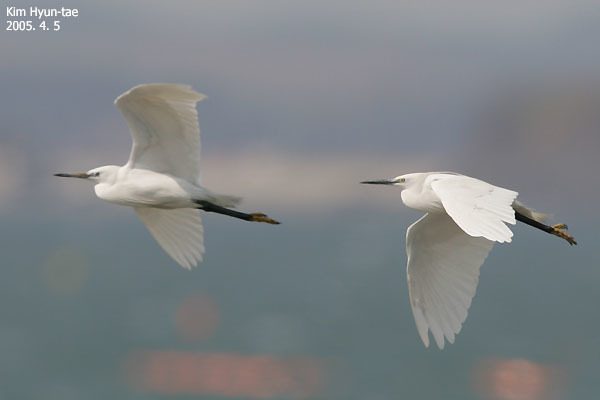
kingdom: Animalia
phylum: Chordata
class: Aves
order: Pelecaniformes
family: Ardeidae
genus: Egretta
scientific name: Egretta garzetta
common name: Little egret
